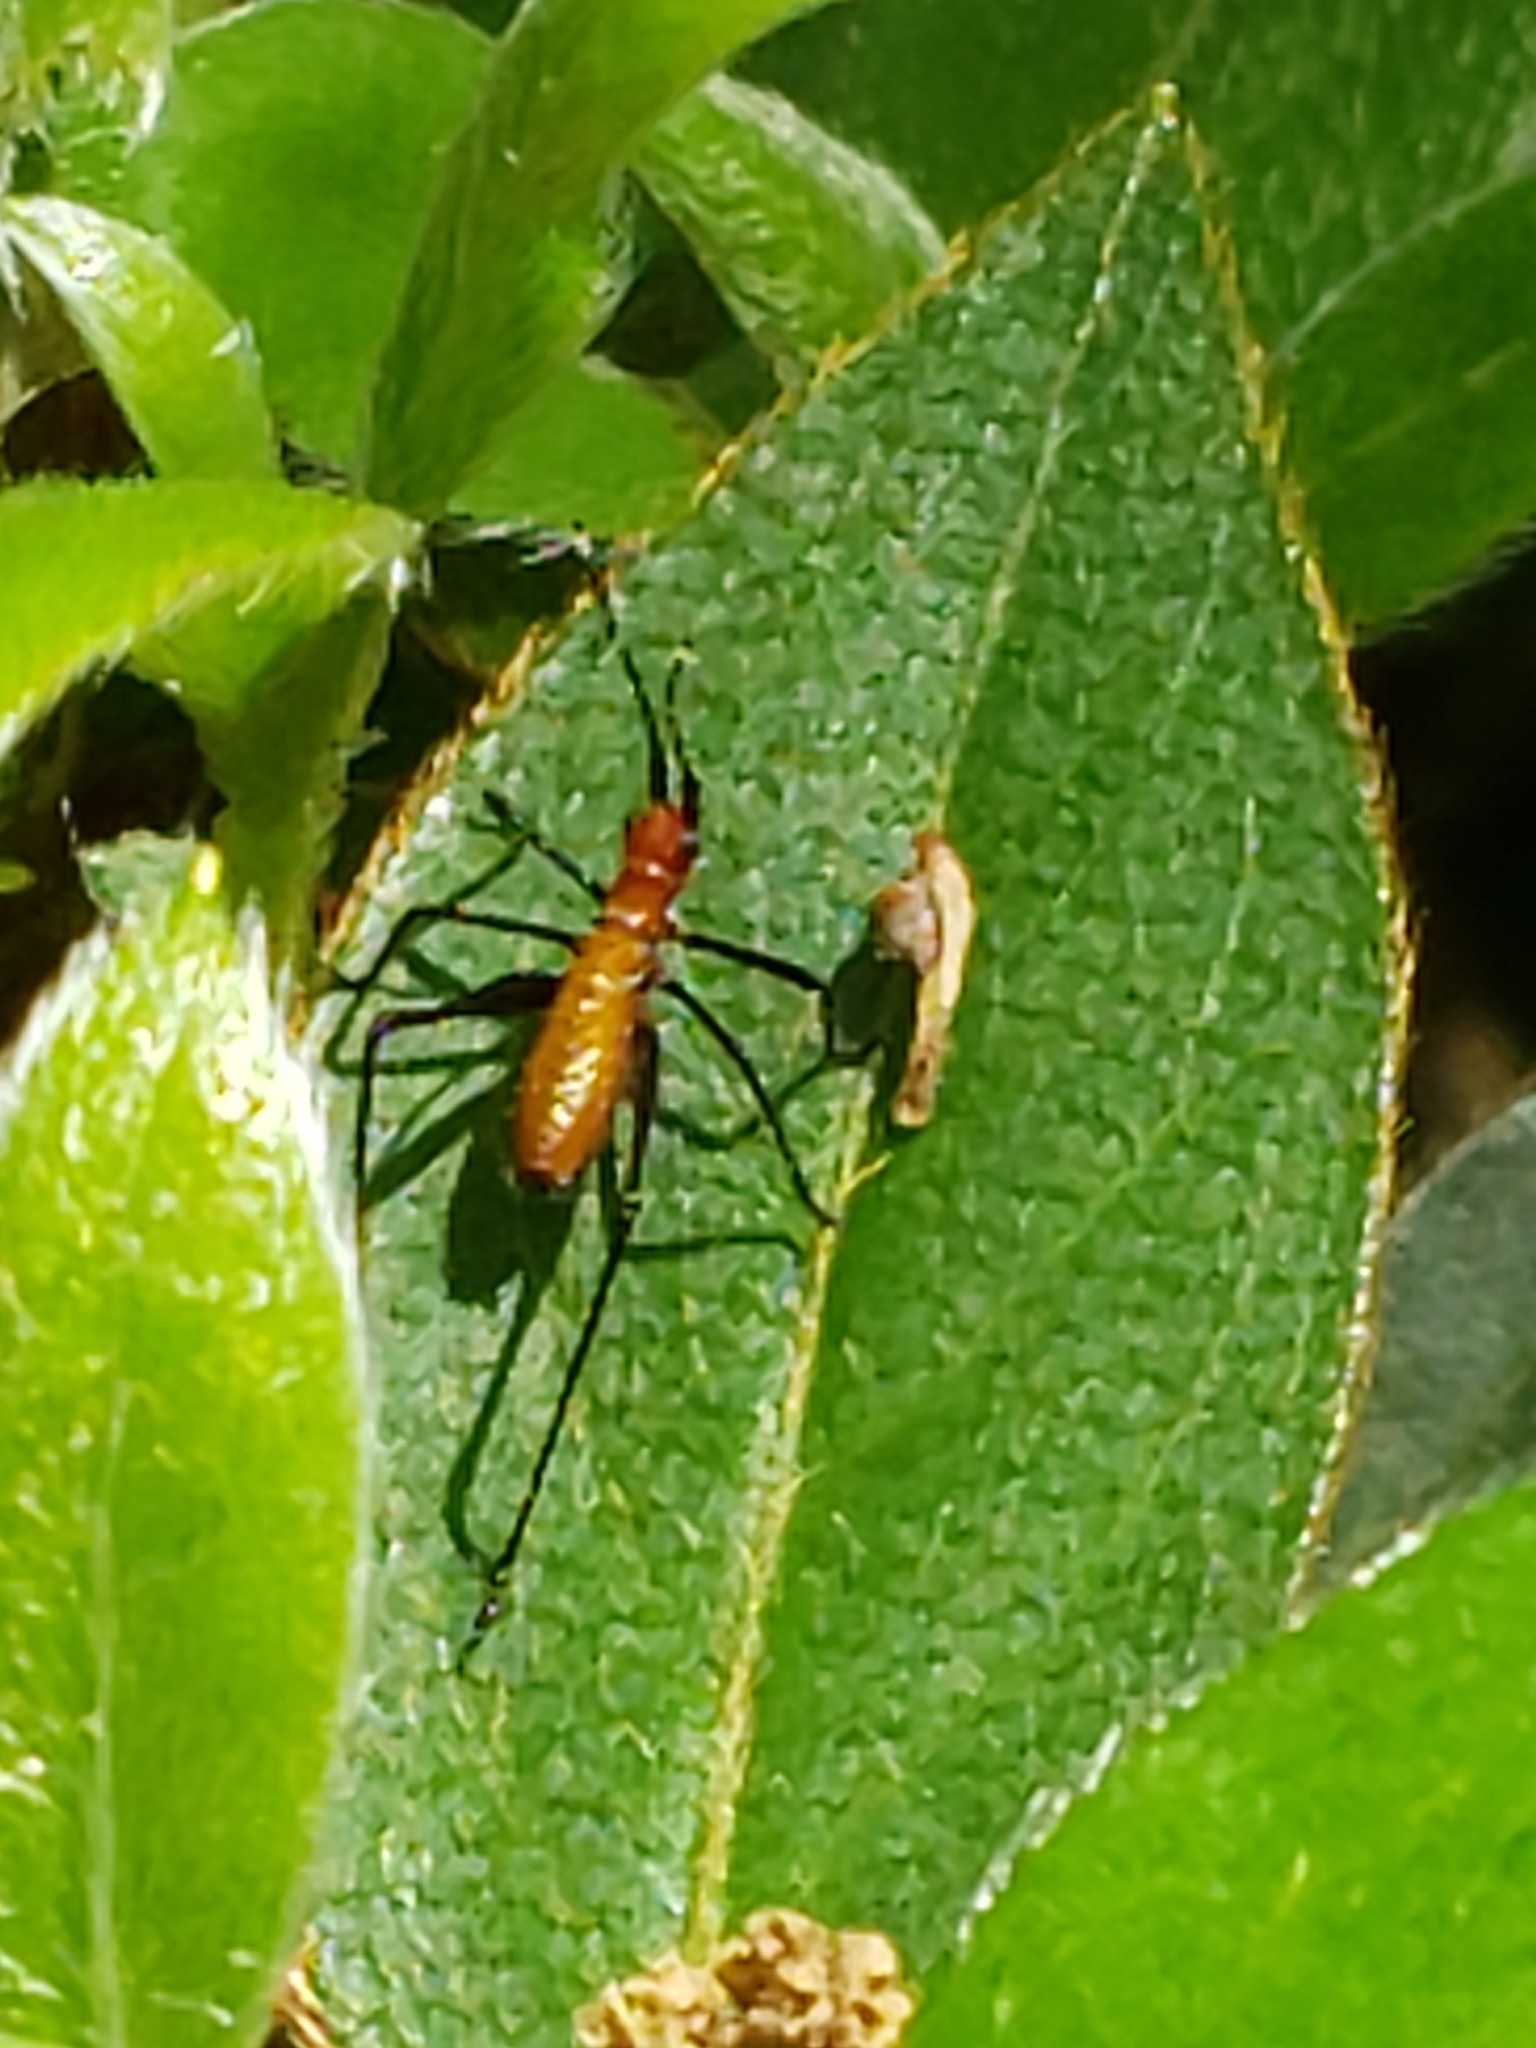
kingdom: Animalia
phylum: Arthropoda
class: Insecta
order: Orthoptera
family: Tettigoniidae
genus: Scudderia
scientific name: Scudderia cuneata
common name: Southeastern bush katydid
